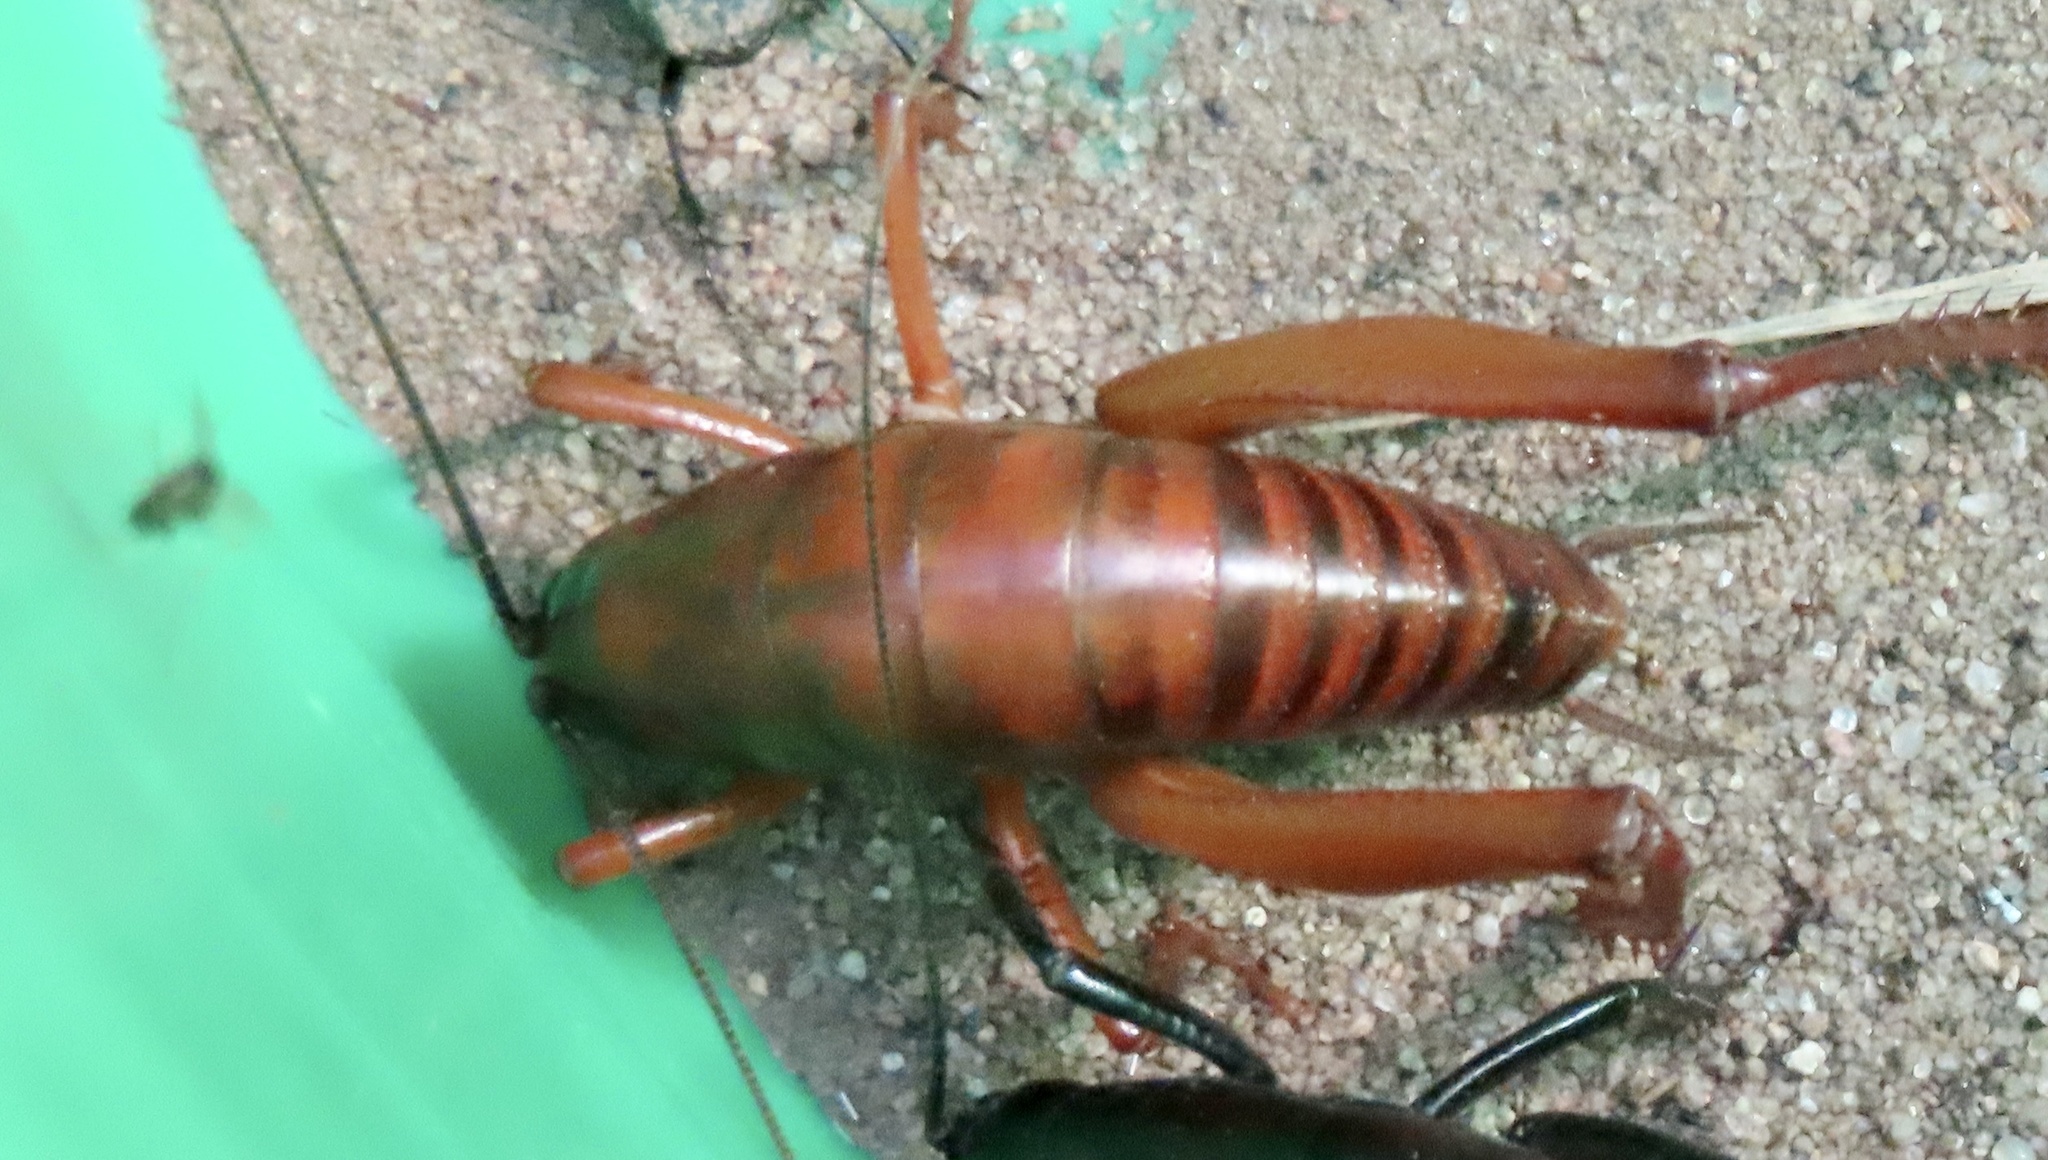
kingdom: Animalia
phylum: Arthropoda
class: Insecta
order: Orthoptera
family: Rhaphidophoridae
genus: Udeopsylla
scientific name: Udeopsylla robusta
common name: Robust camel cricket
